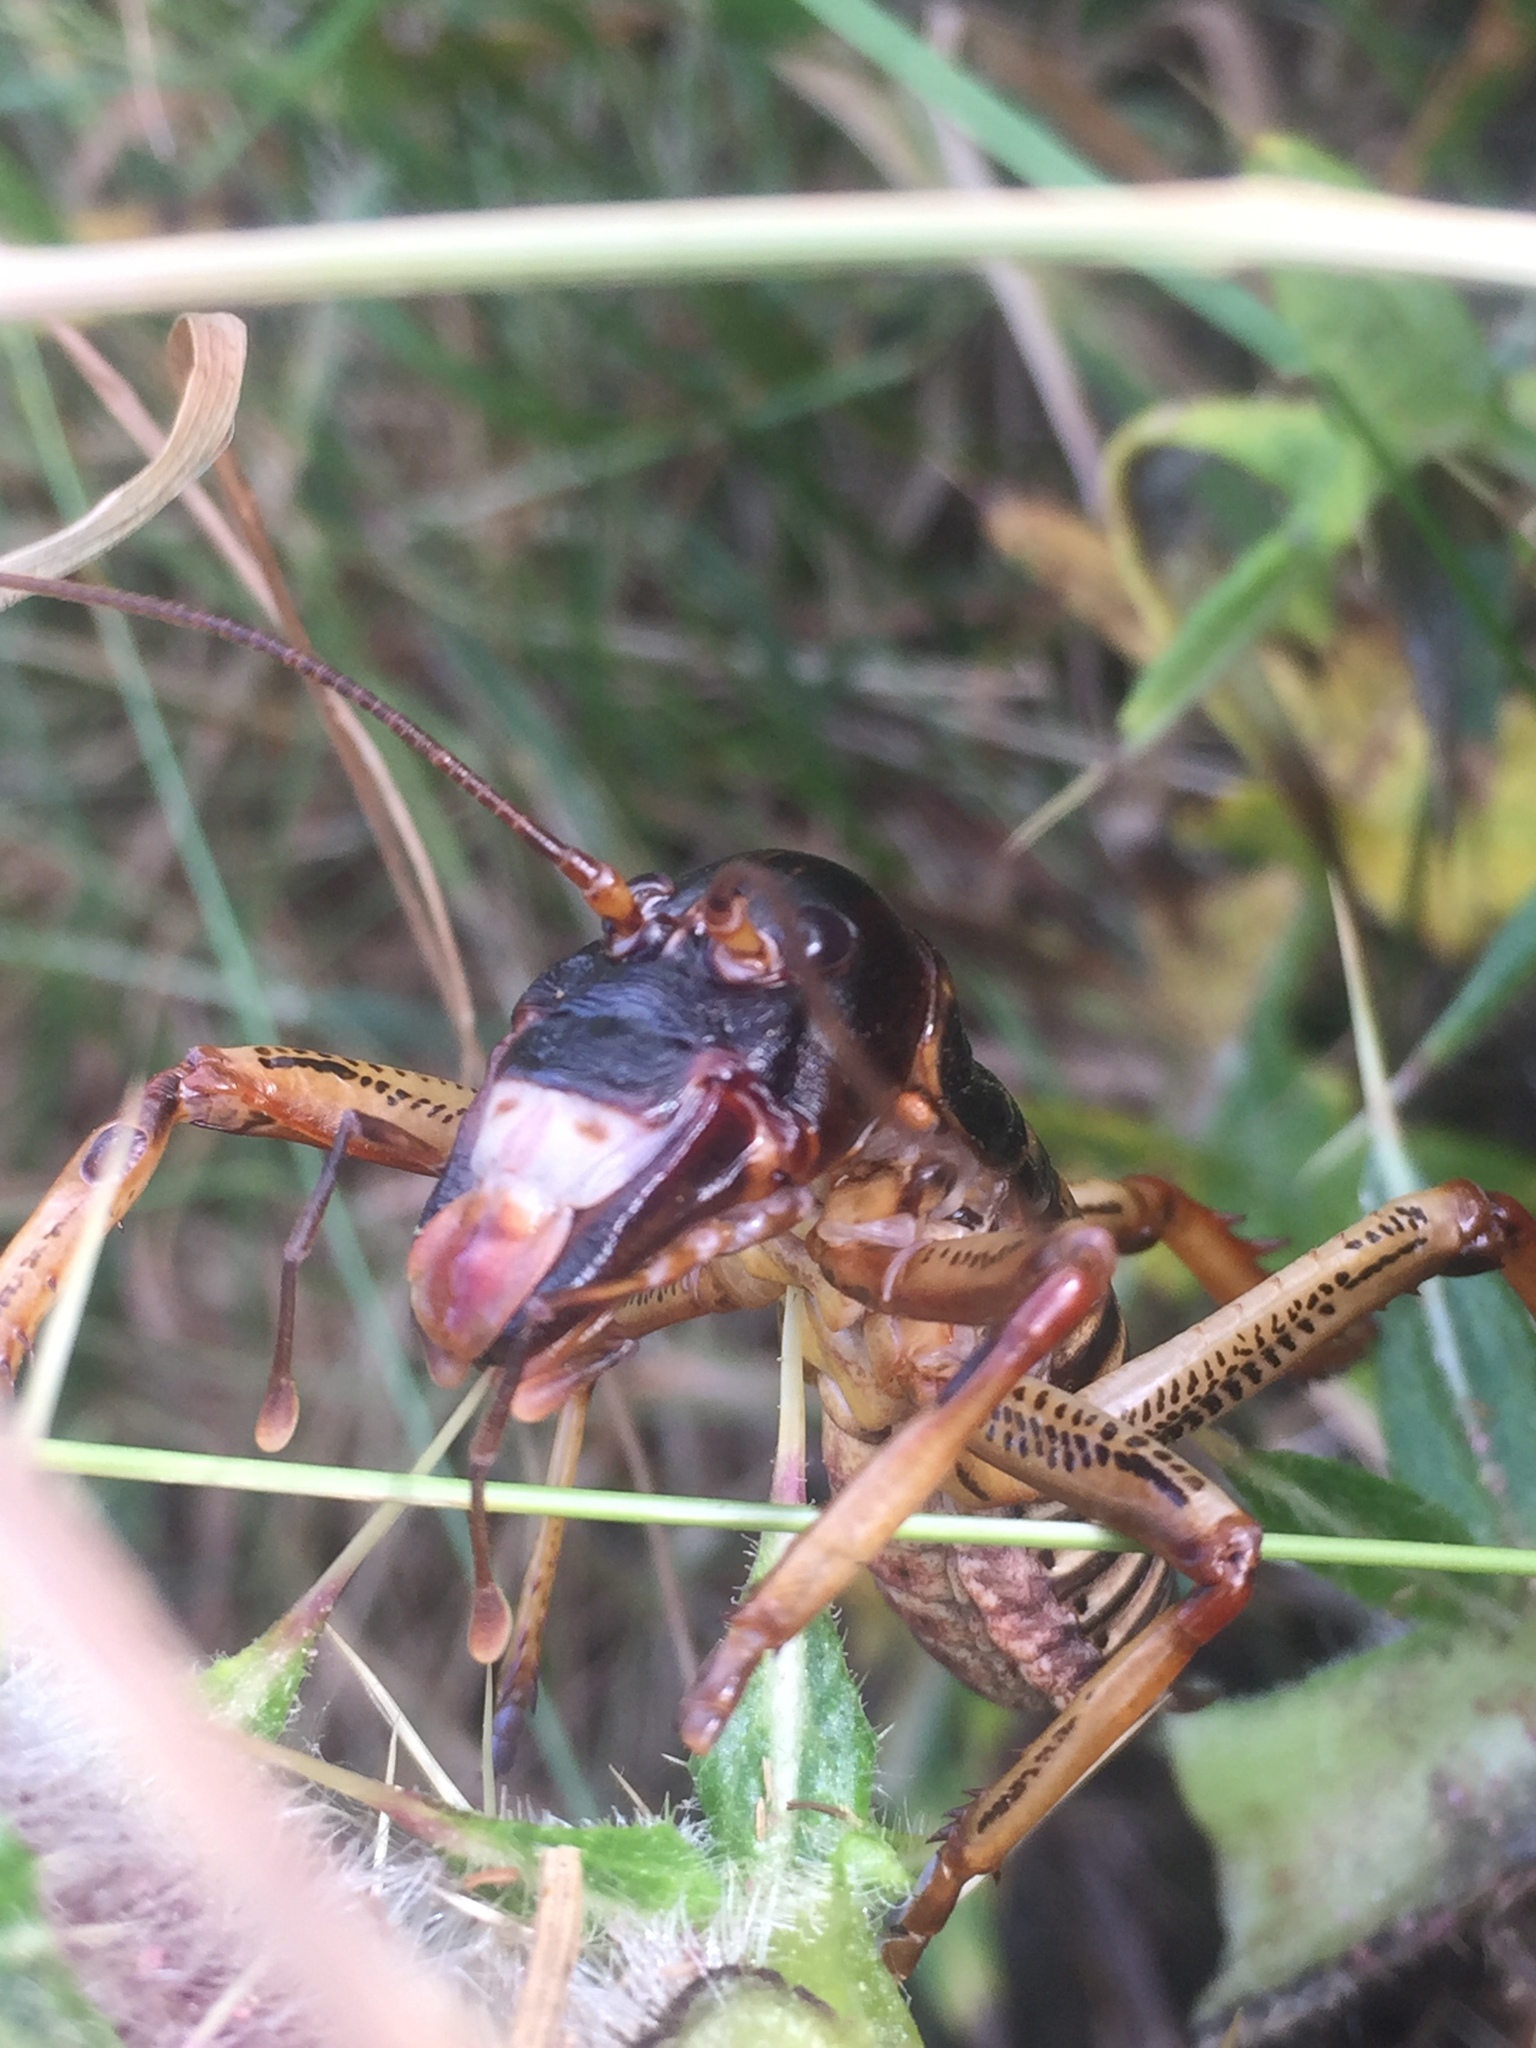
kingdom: Animalia
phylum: Arthropoda
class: Insecta
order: Orthoptera
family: Anostostomatidae
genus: Hemideina
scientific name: Hemideina crassidens
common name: Wellington tree weta
